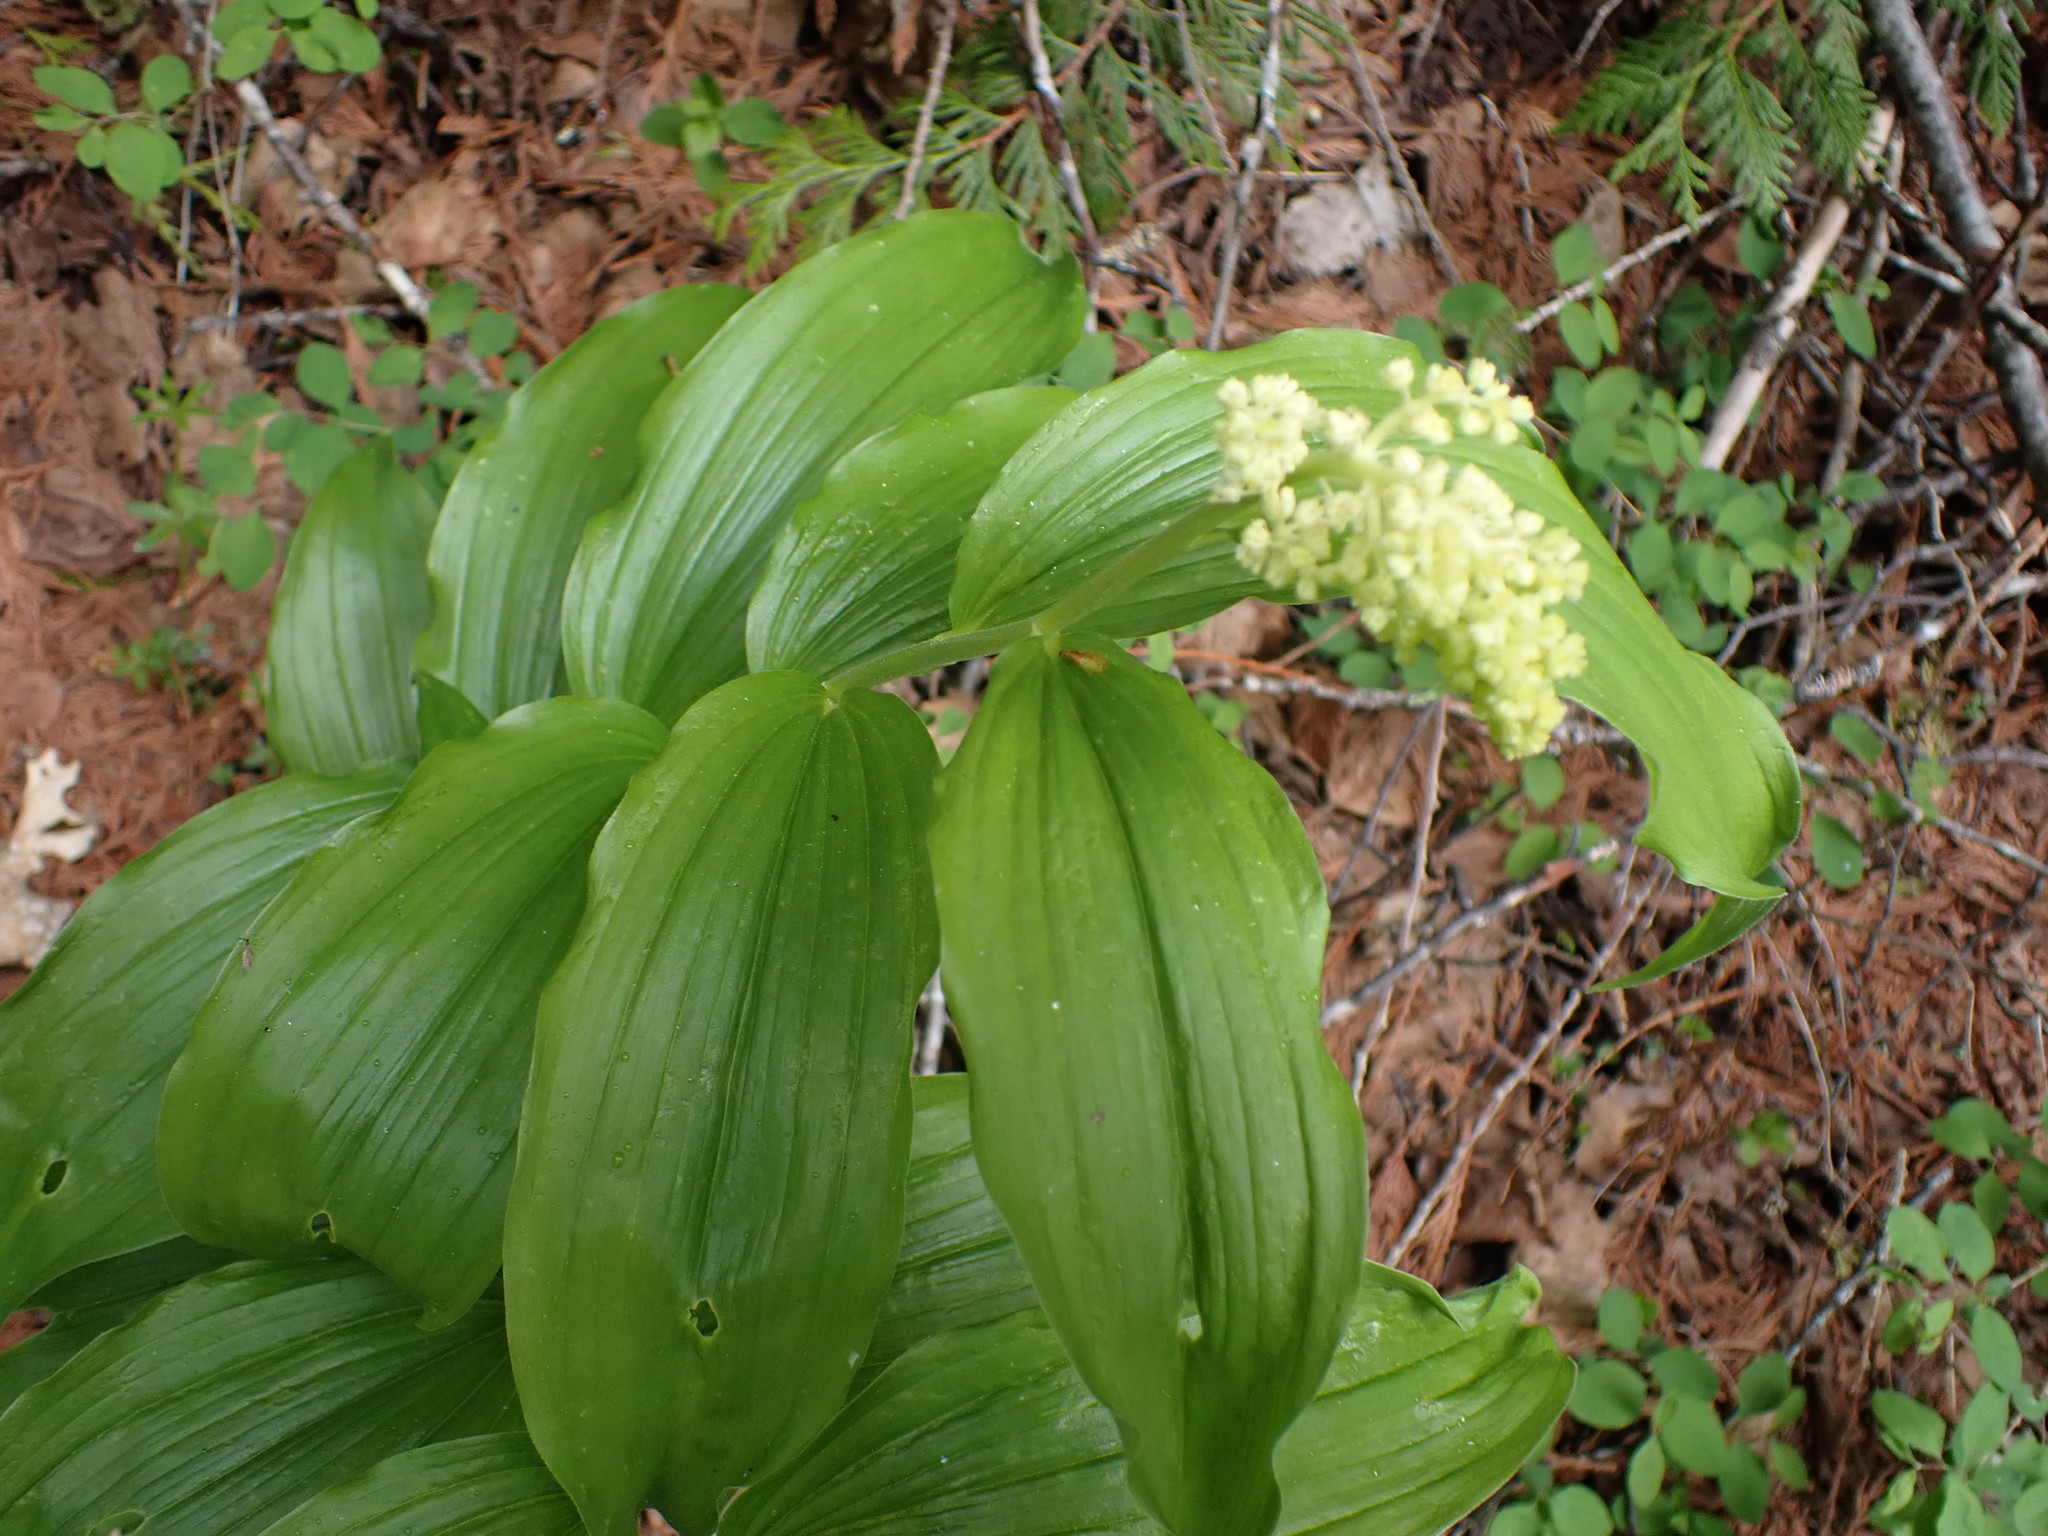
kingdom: Plantae
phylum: Tracheophyta
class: Liliopsida
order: Asparagales
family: Asparagaceae
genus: Maianthemum
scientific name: Maianthemum racemosum
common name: False spikenard
